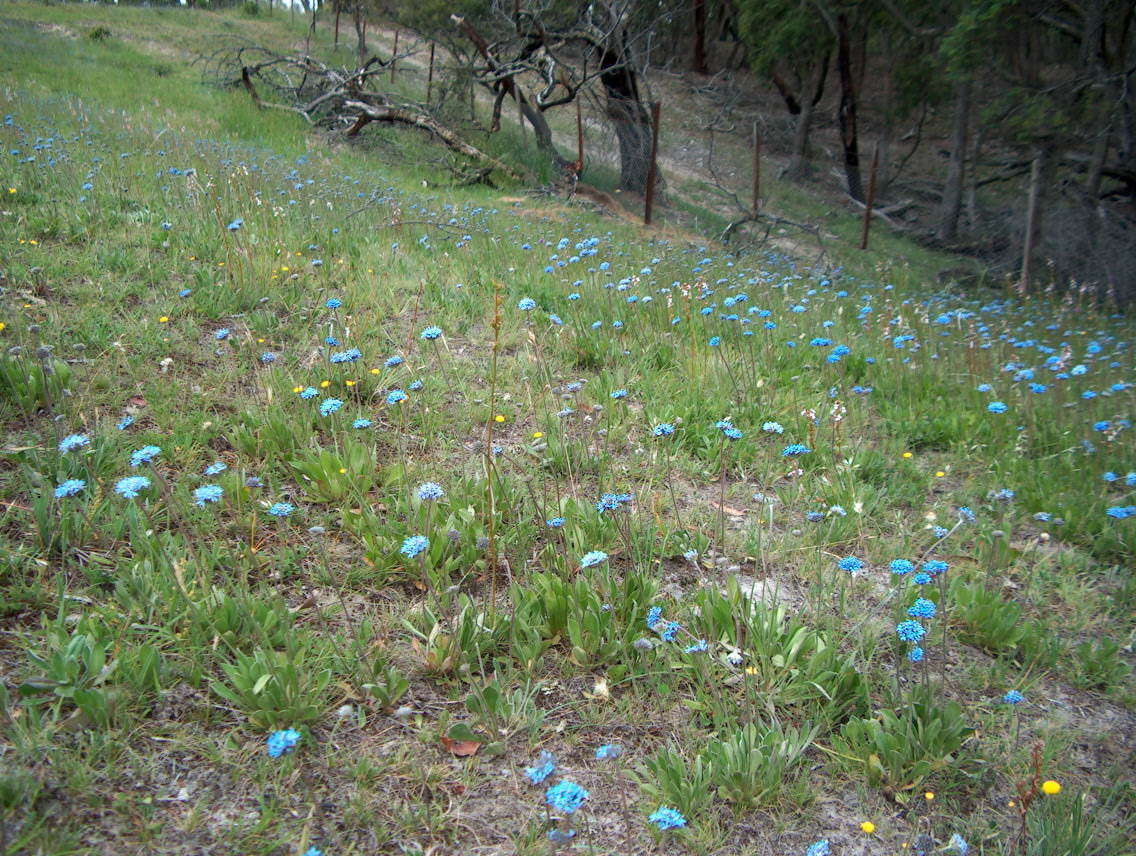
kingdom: Plantae
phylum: Tracheophyta
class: Magnoliopsida
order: Asterales
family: Asteraceae
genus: Leptorhynchos
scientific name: Leptorhynchos squamatus
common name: Scaly-buttons
